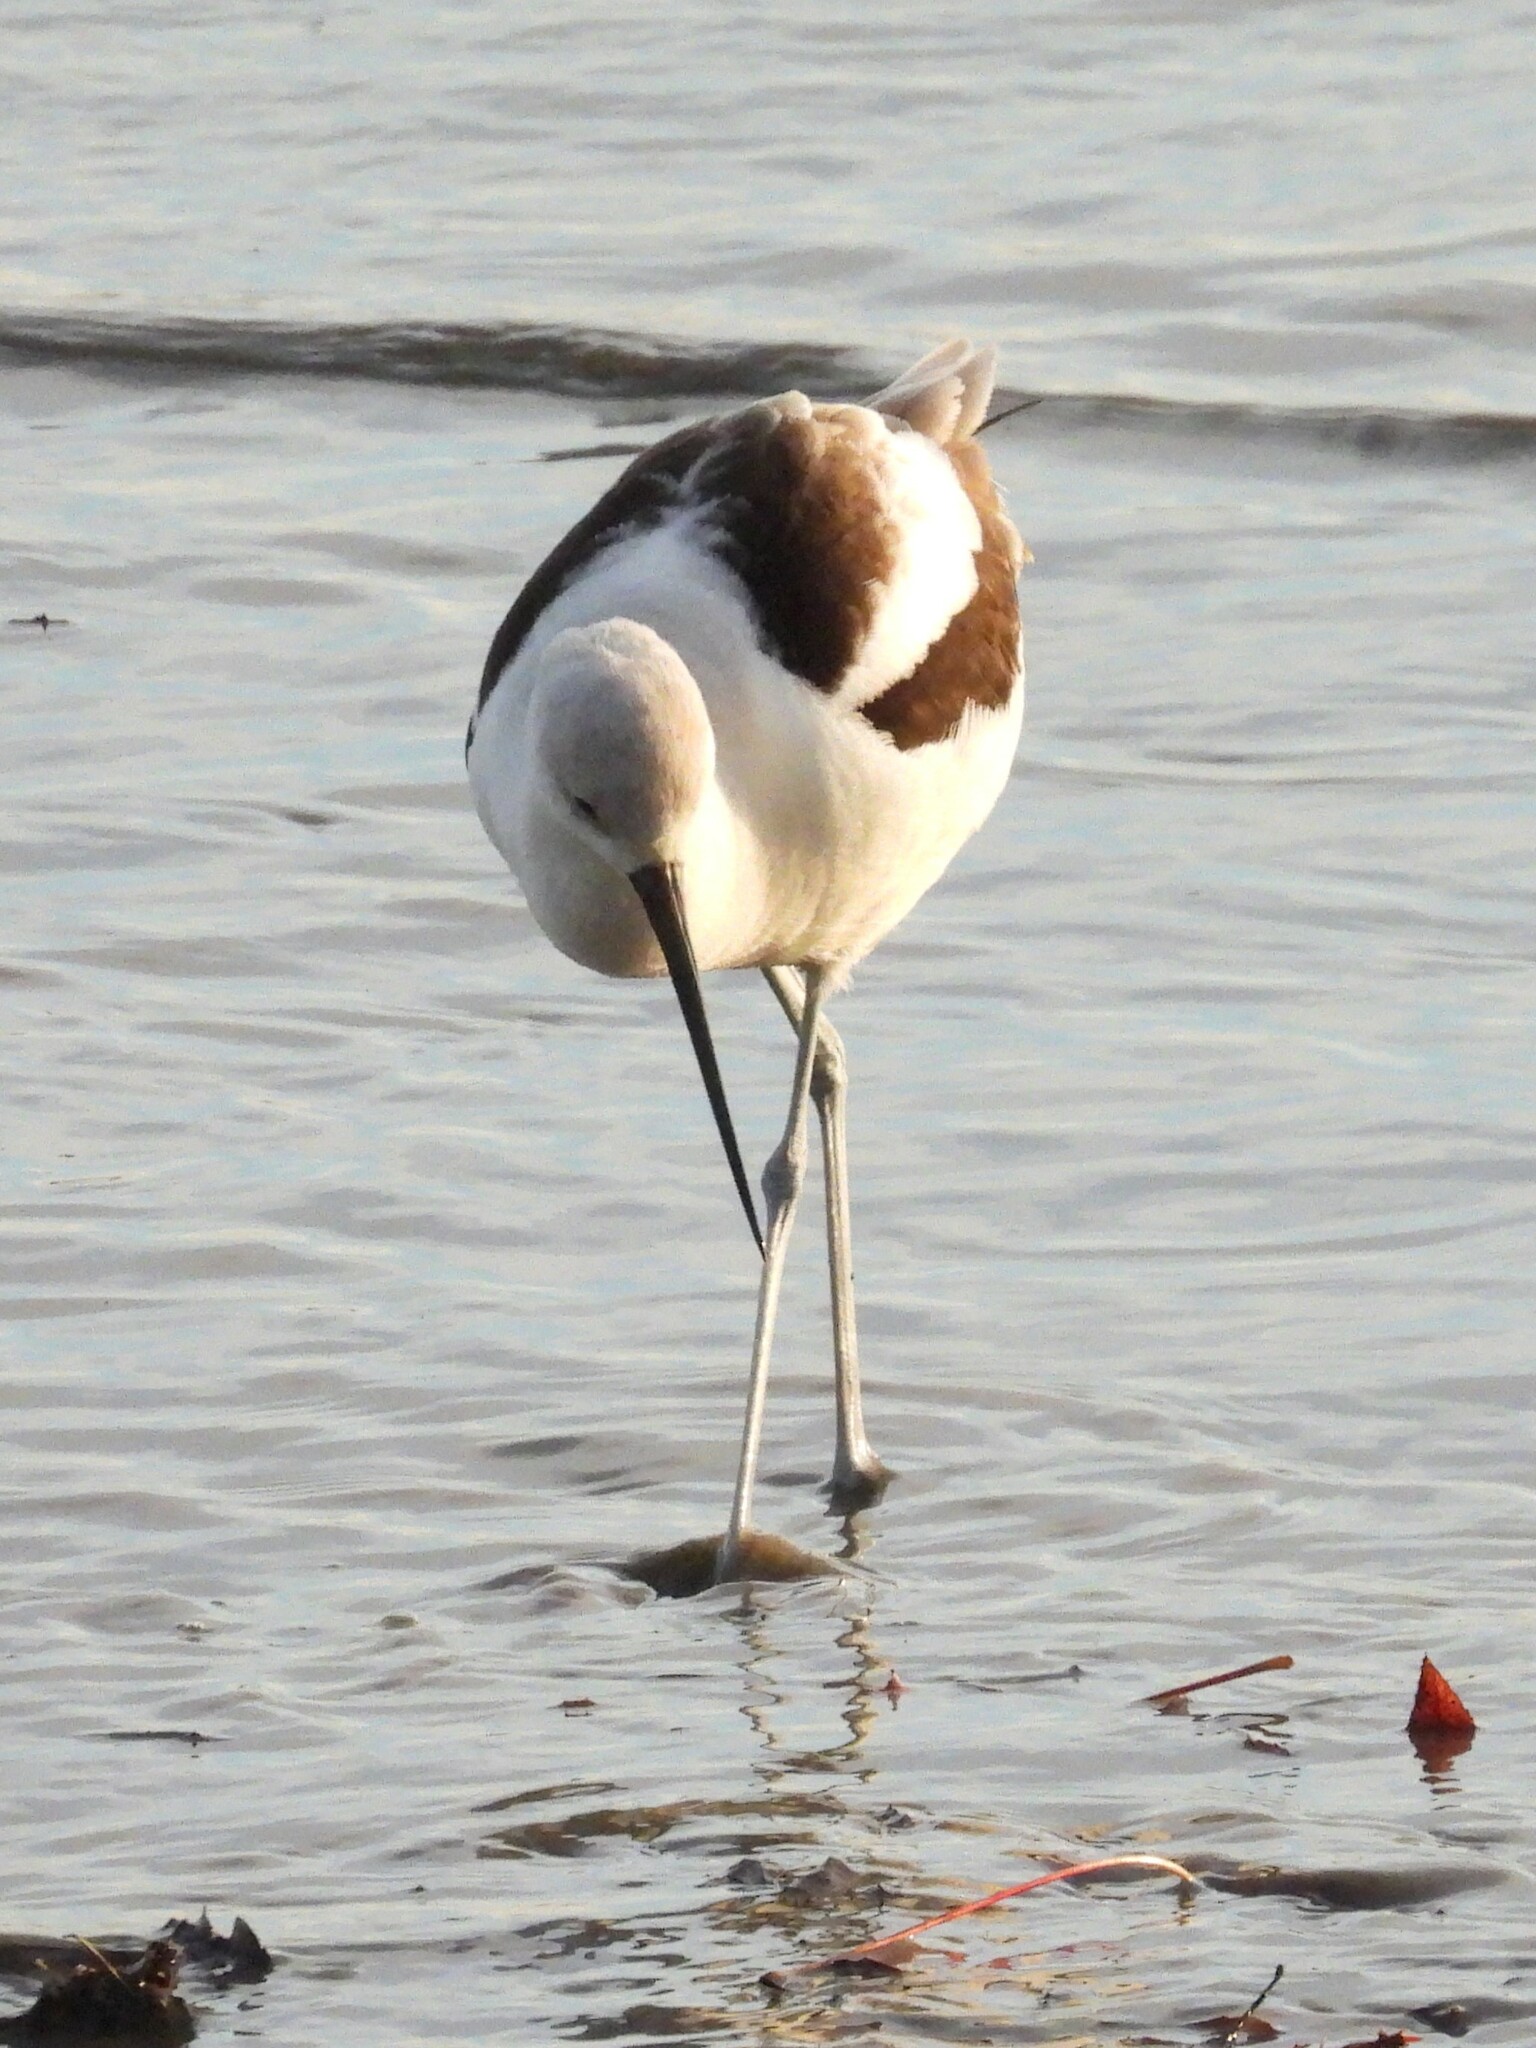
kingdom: Animalia
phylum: Chordata
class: Aves
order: Charadriiformes
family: Recurvirostridae
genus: Recurvirostra
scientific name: Recurvirostra americana
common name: American avocet
